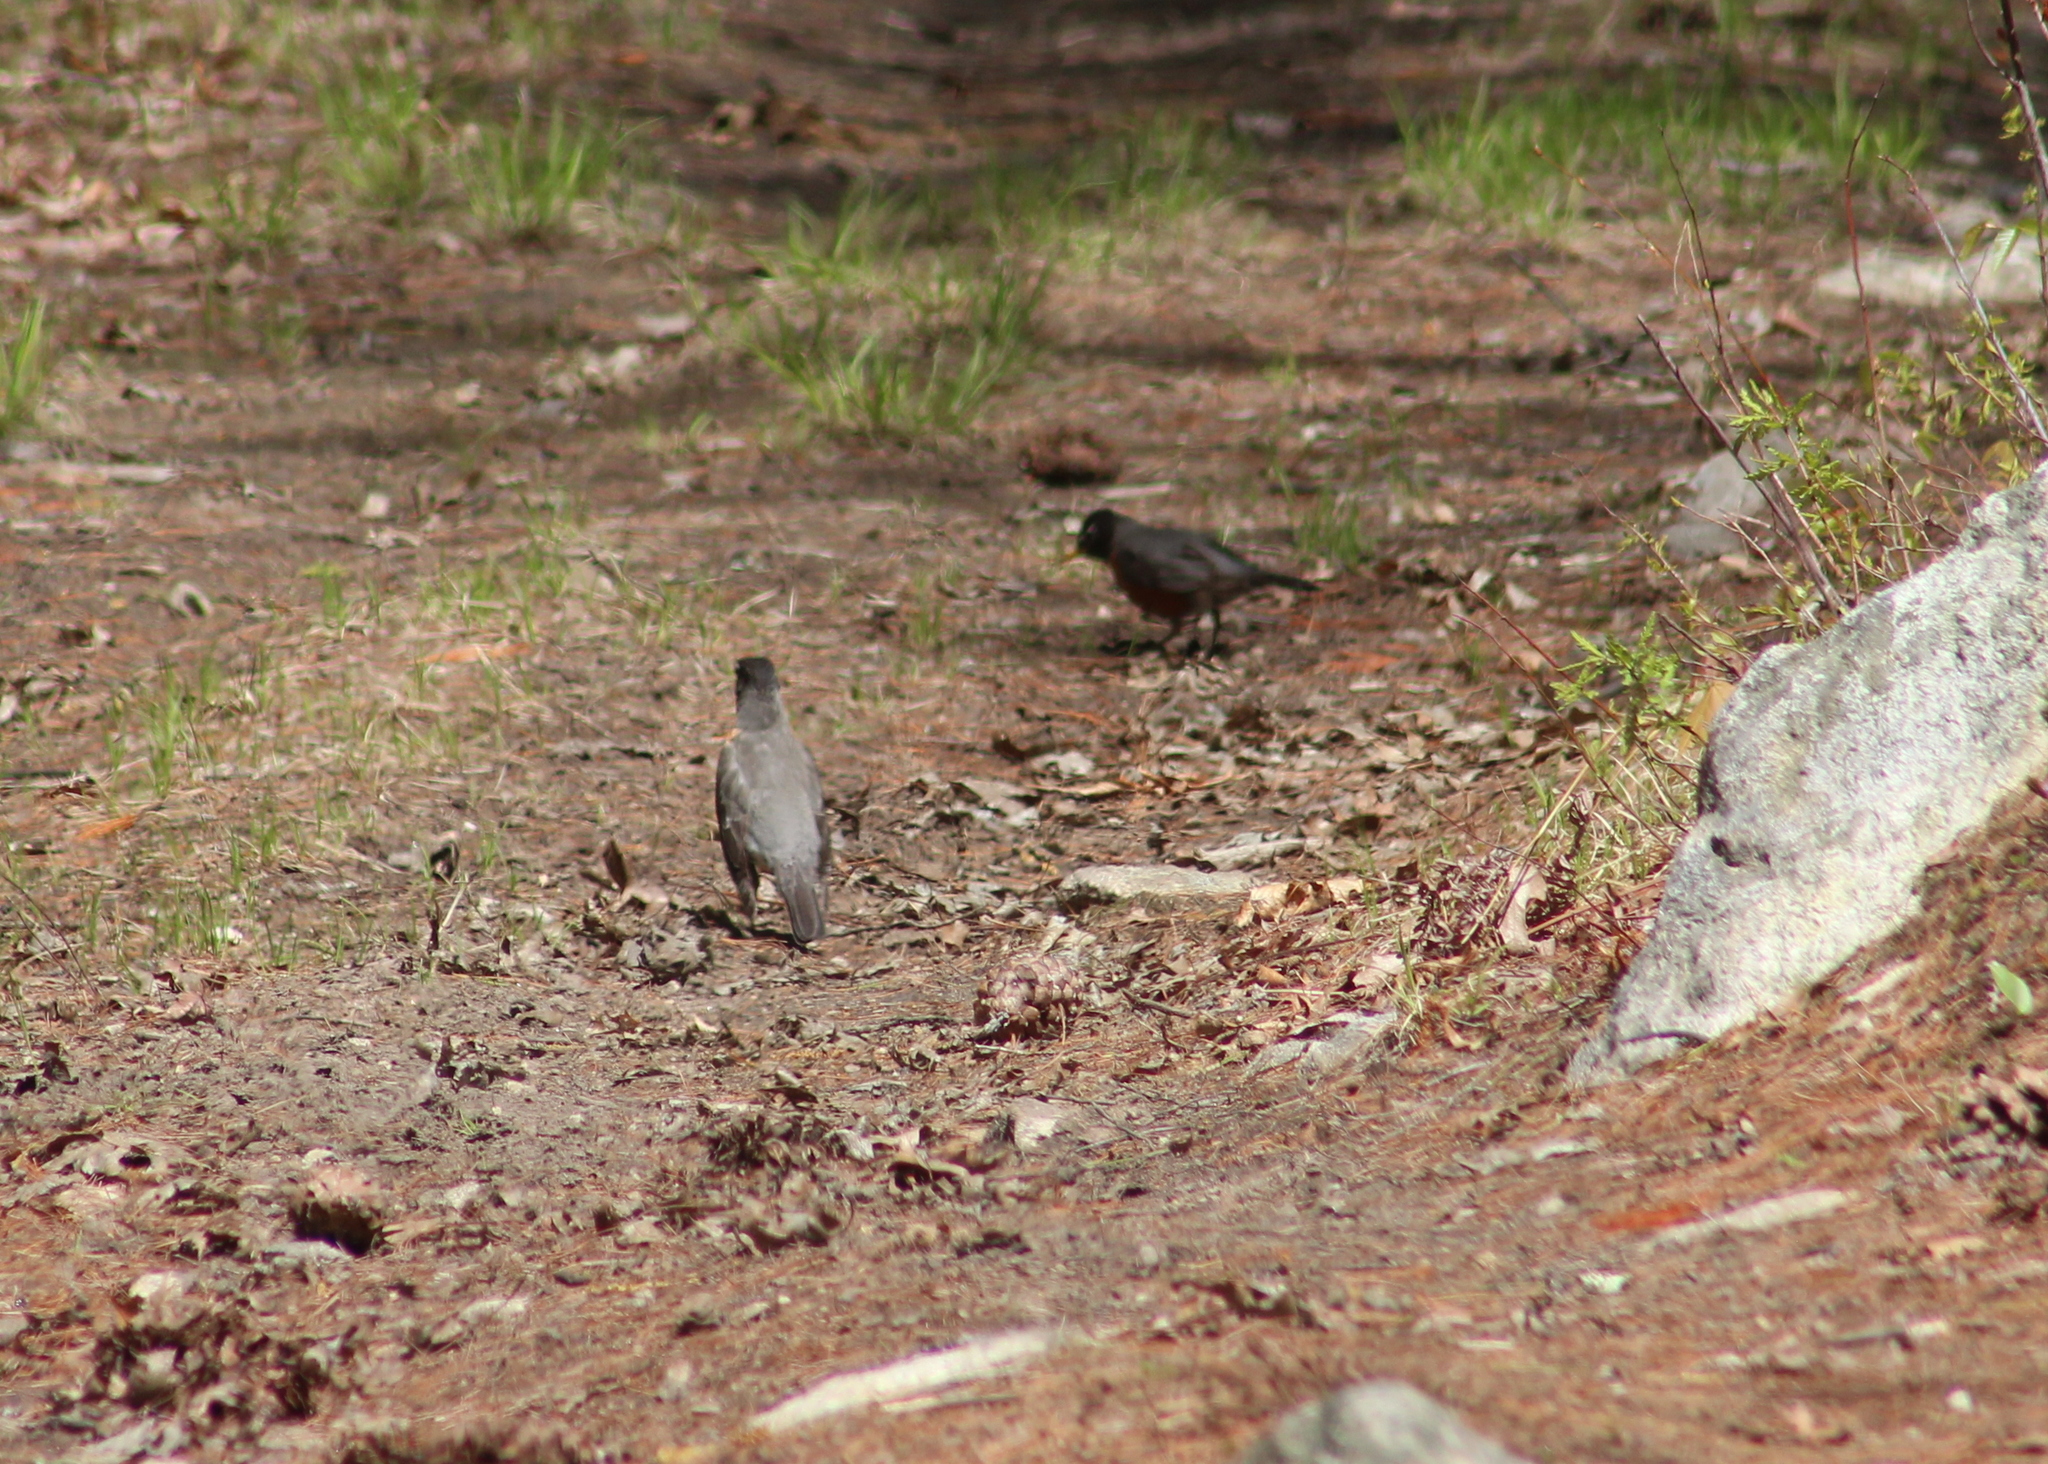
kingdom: Animalia
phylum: Chordata
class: Aves
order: Passeriformes
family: Turdidae
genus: Turdus
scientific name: Turdus migratorius
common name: American robin
